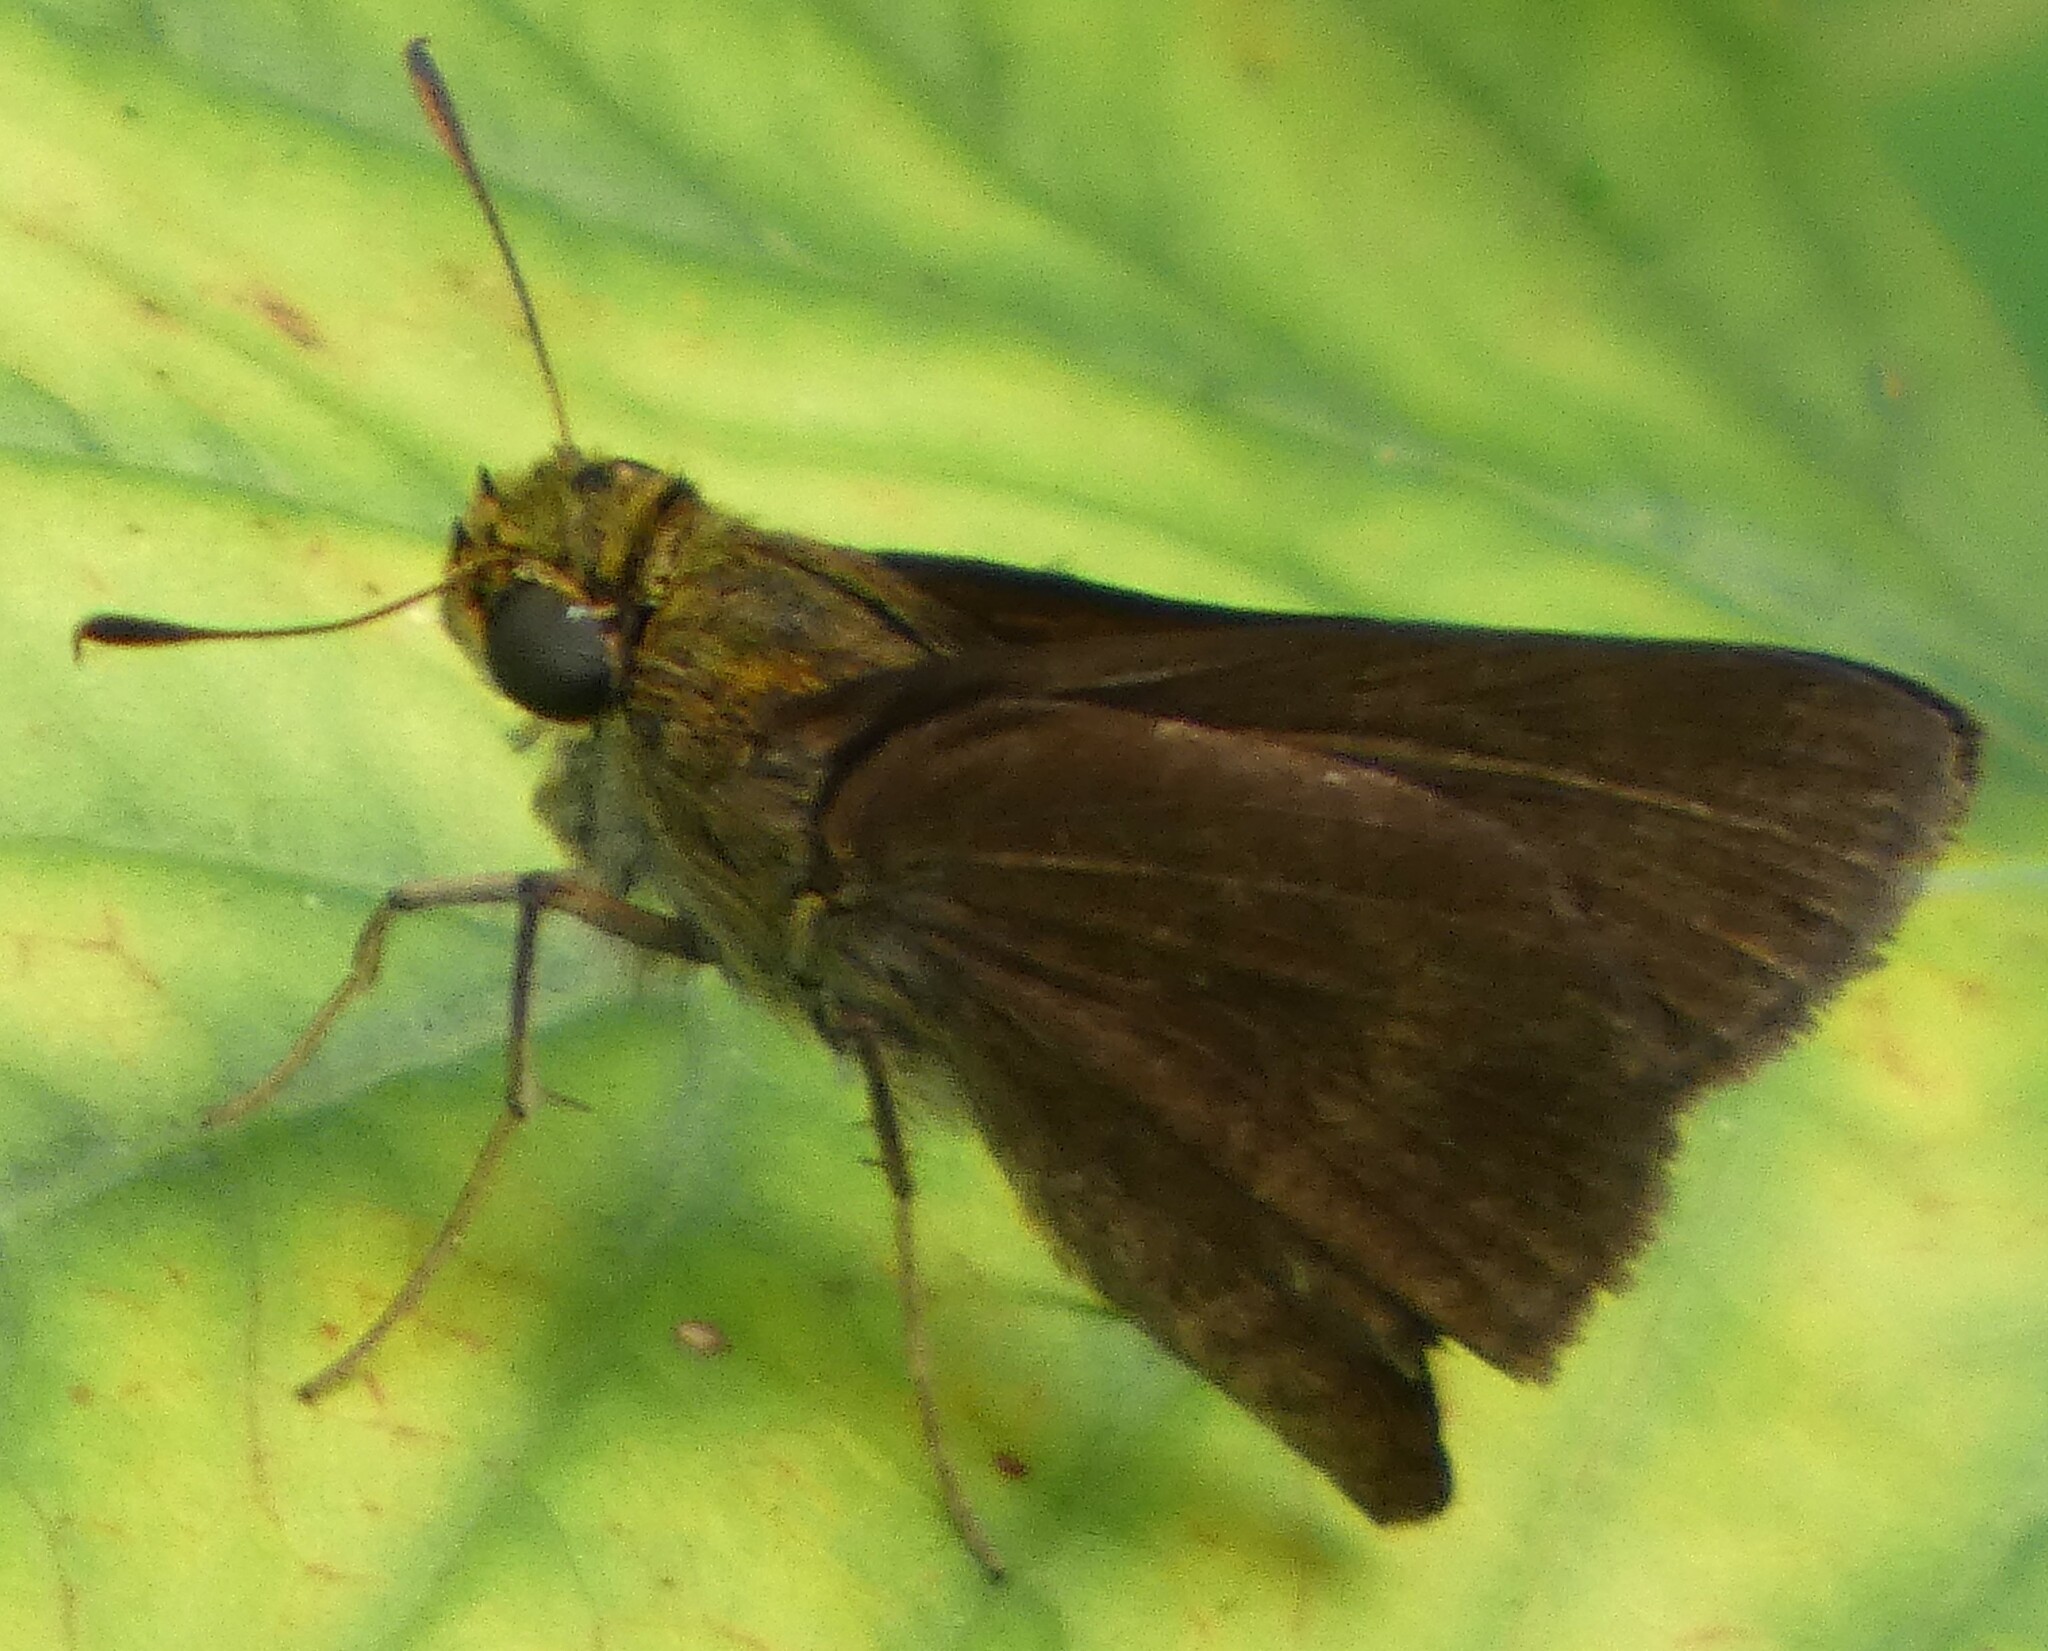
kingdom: Animalia
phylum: Arthropoda
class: Insecta
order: Lepidoptera
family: Hesperiidae
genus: Euphyes
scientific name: Euphyes vestris
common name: Dun skipper
